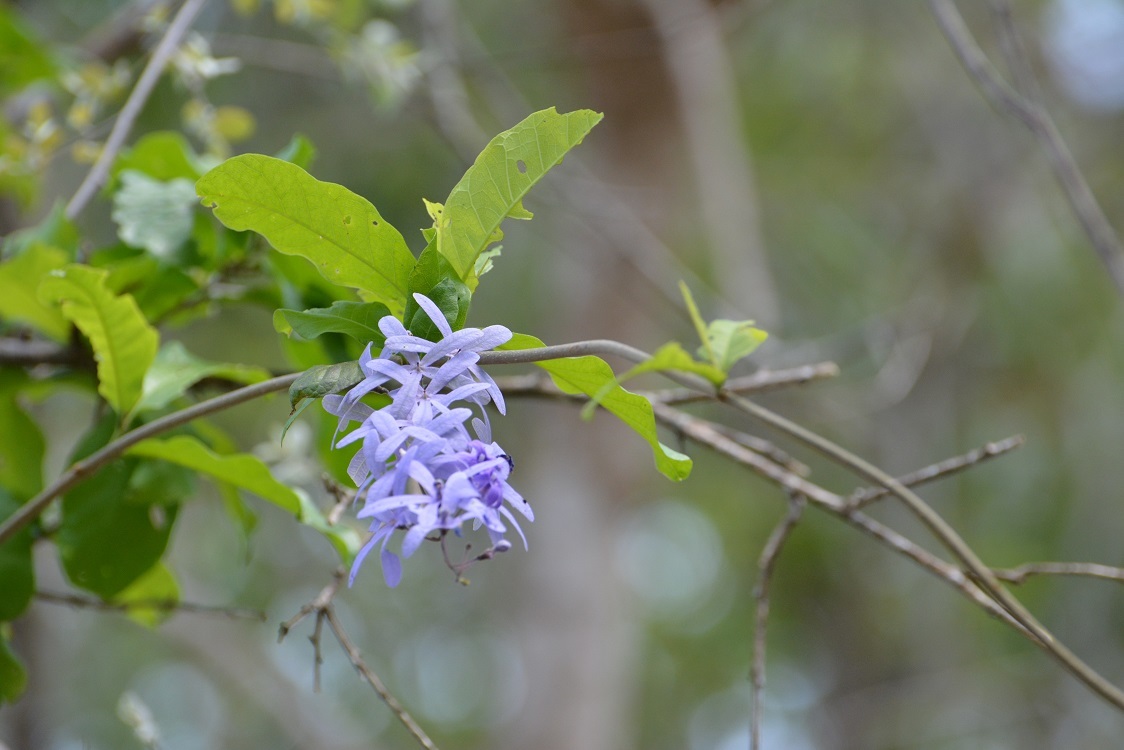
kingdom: Plantae
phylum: Tracheophyta
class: Magnoliopsida
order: Lamiales
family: Verbenaceae
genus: Petrea
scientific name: Petrea volubilis
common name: Queen's-wreath
